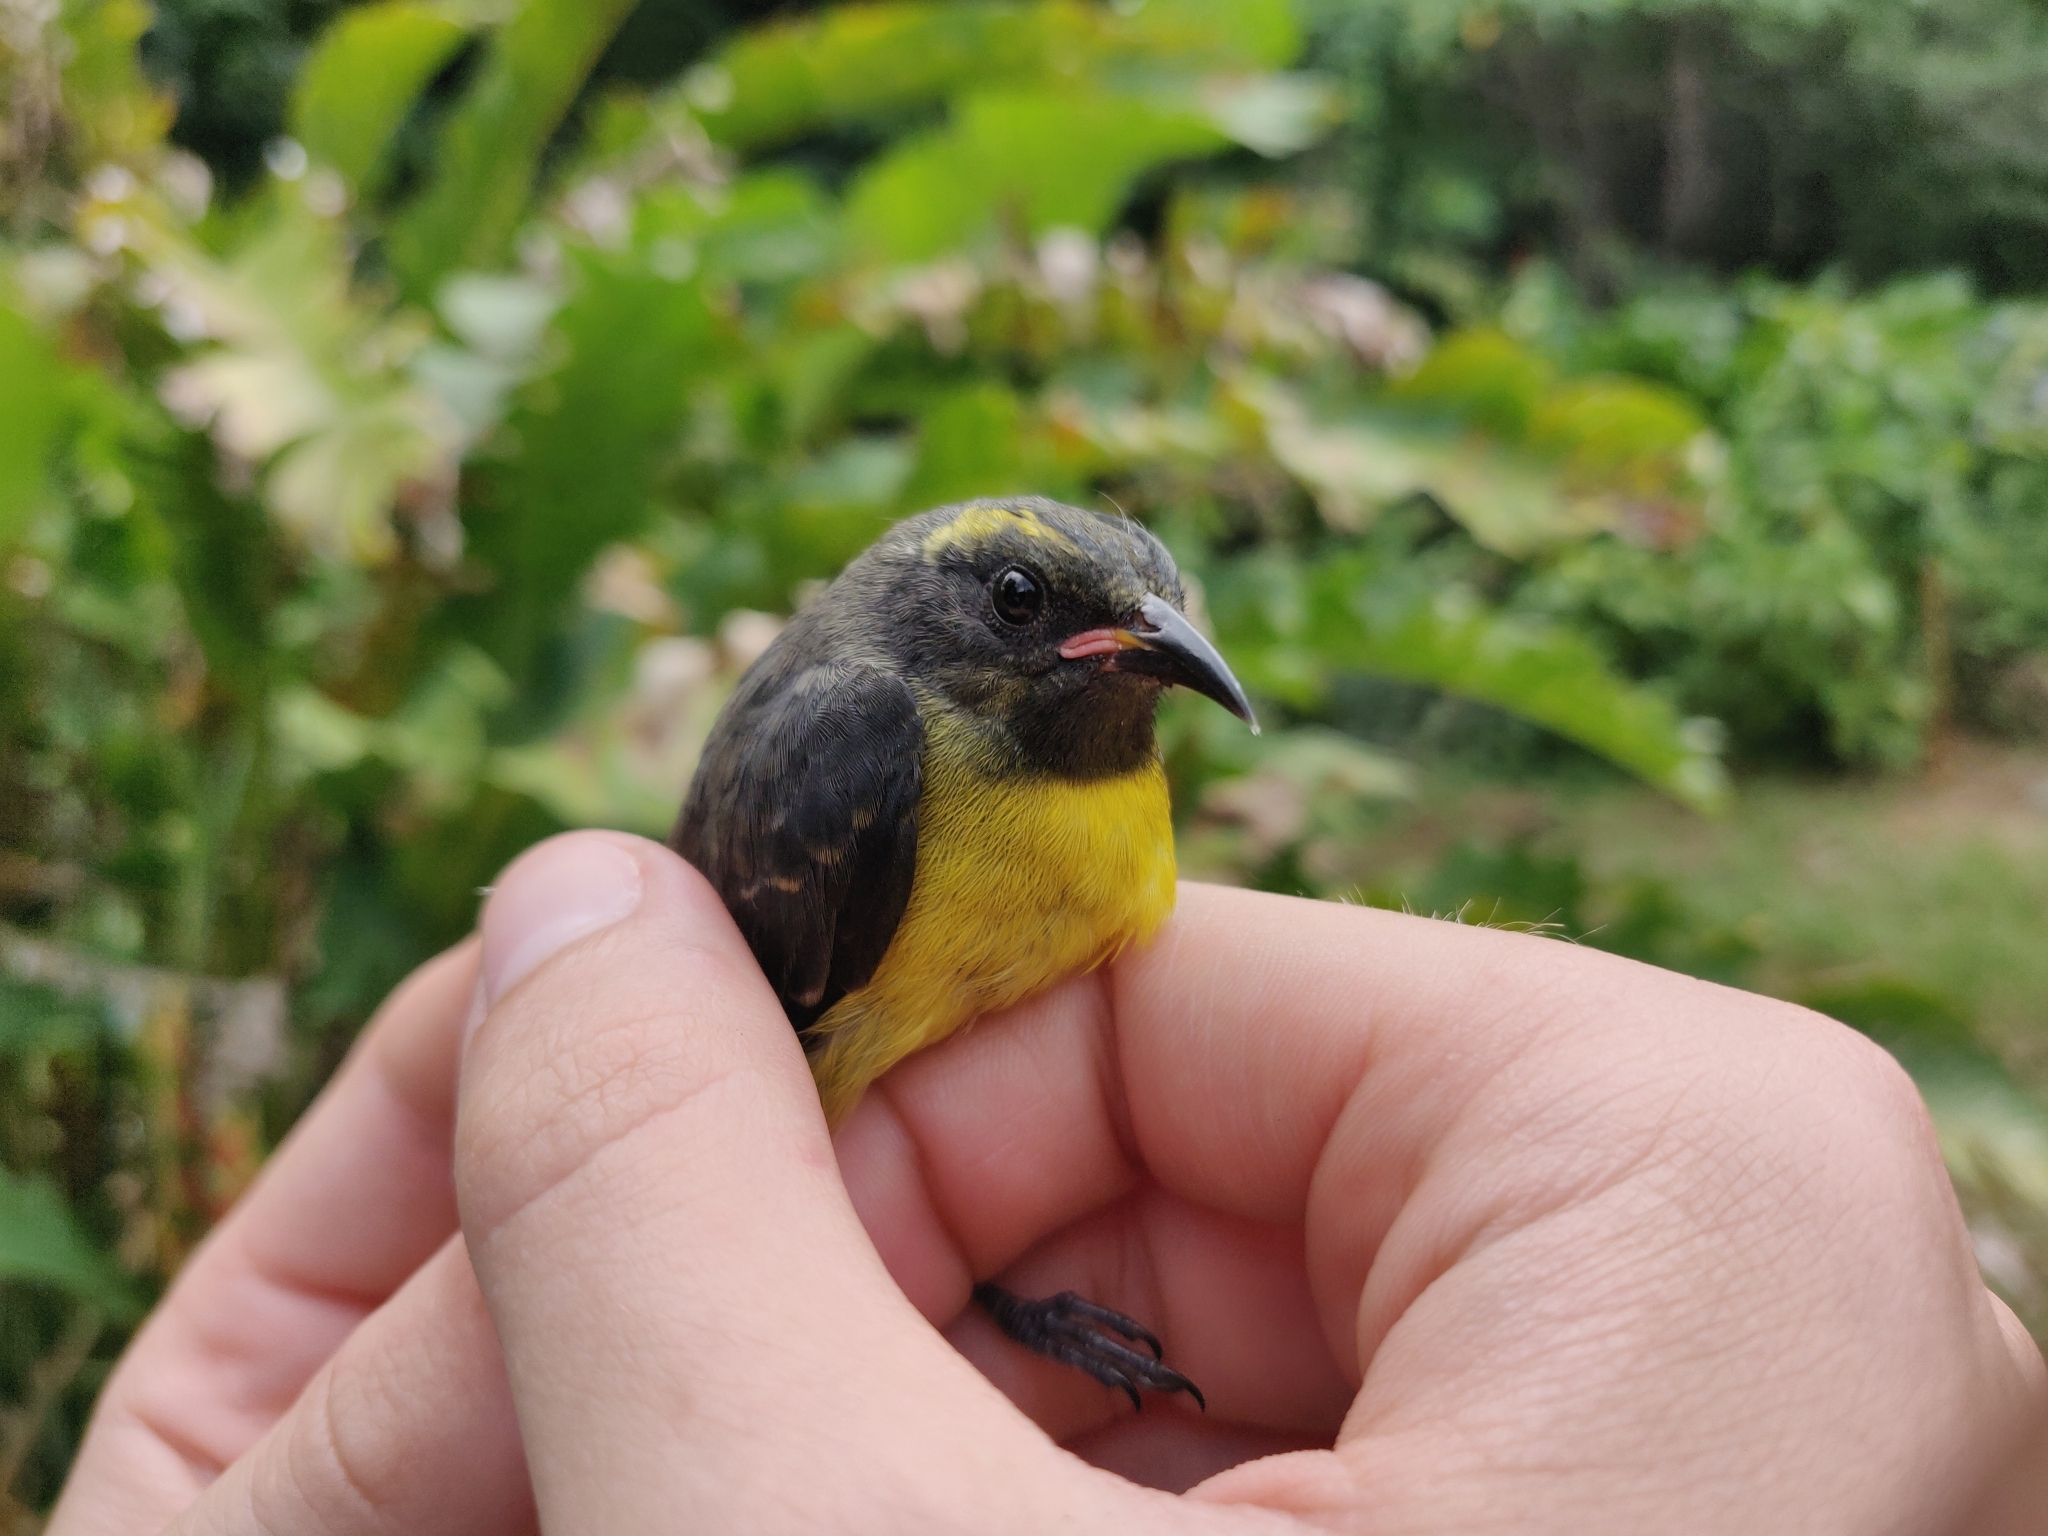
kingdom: Animalia
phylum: Chordata
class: Aves
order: Passeriformes
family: Thraupidae
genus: Coereba
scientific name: Coereba flaveola
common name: Bananaquit
